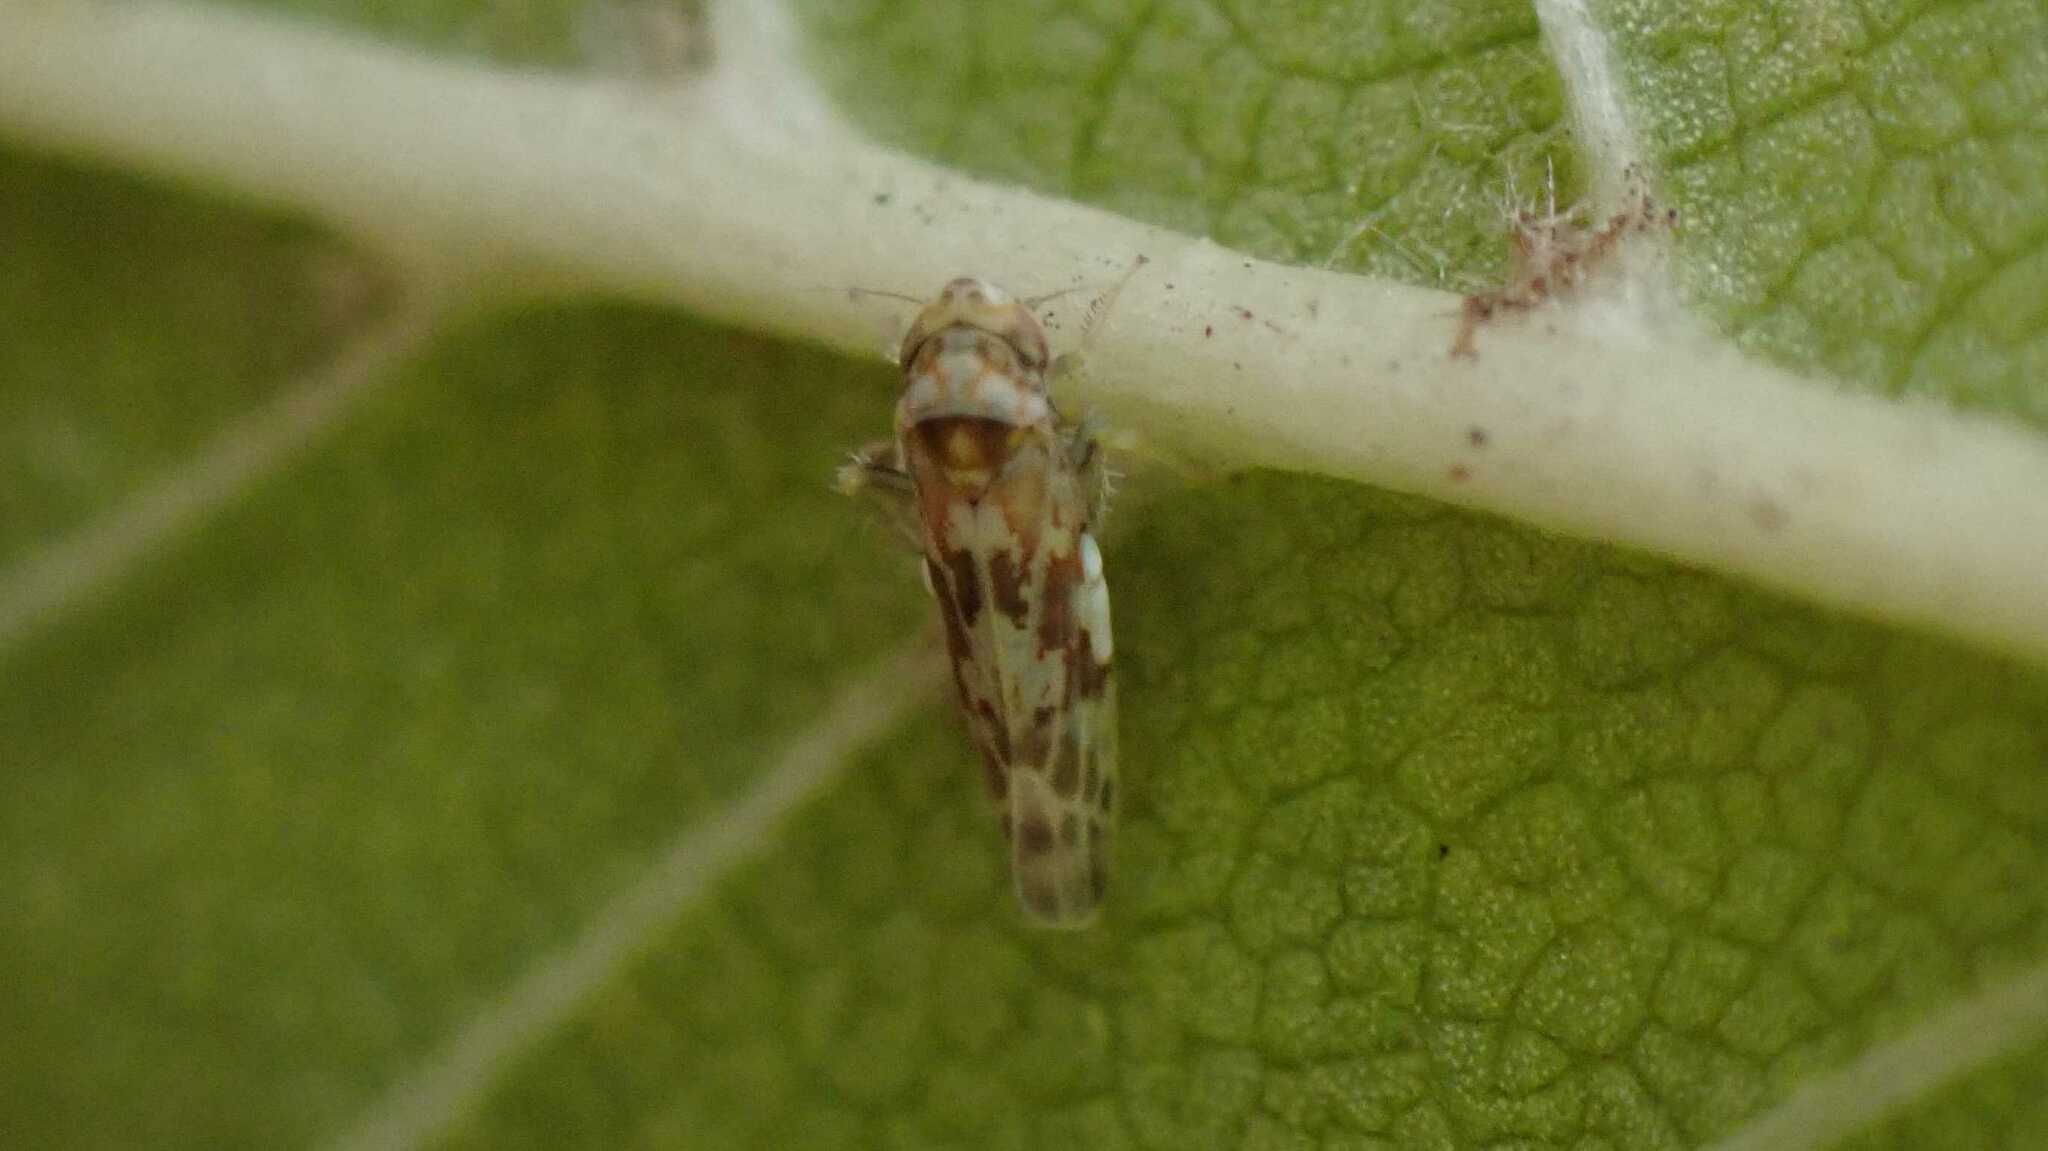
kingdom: Animalia
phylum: Arthropoda
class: Insecta
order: Hemiptera
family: Cicadellidae
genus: Tautoneura
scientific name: Tautoneura polymitusa
